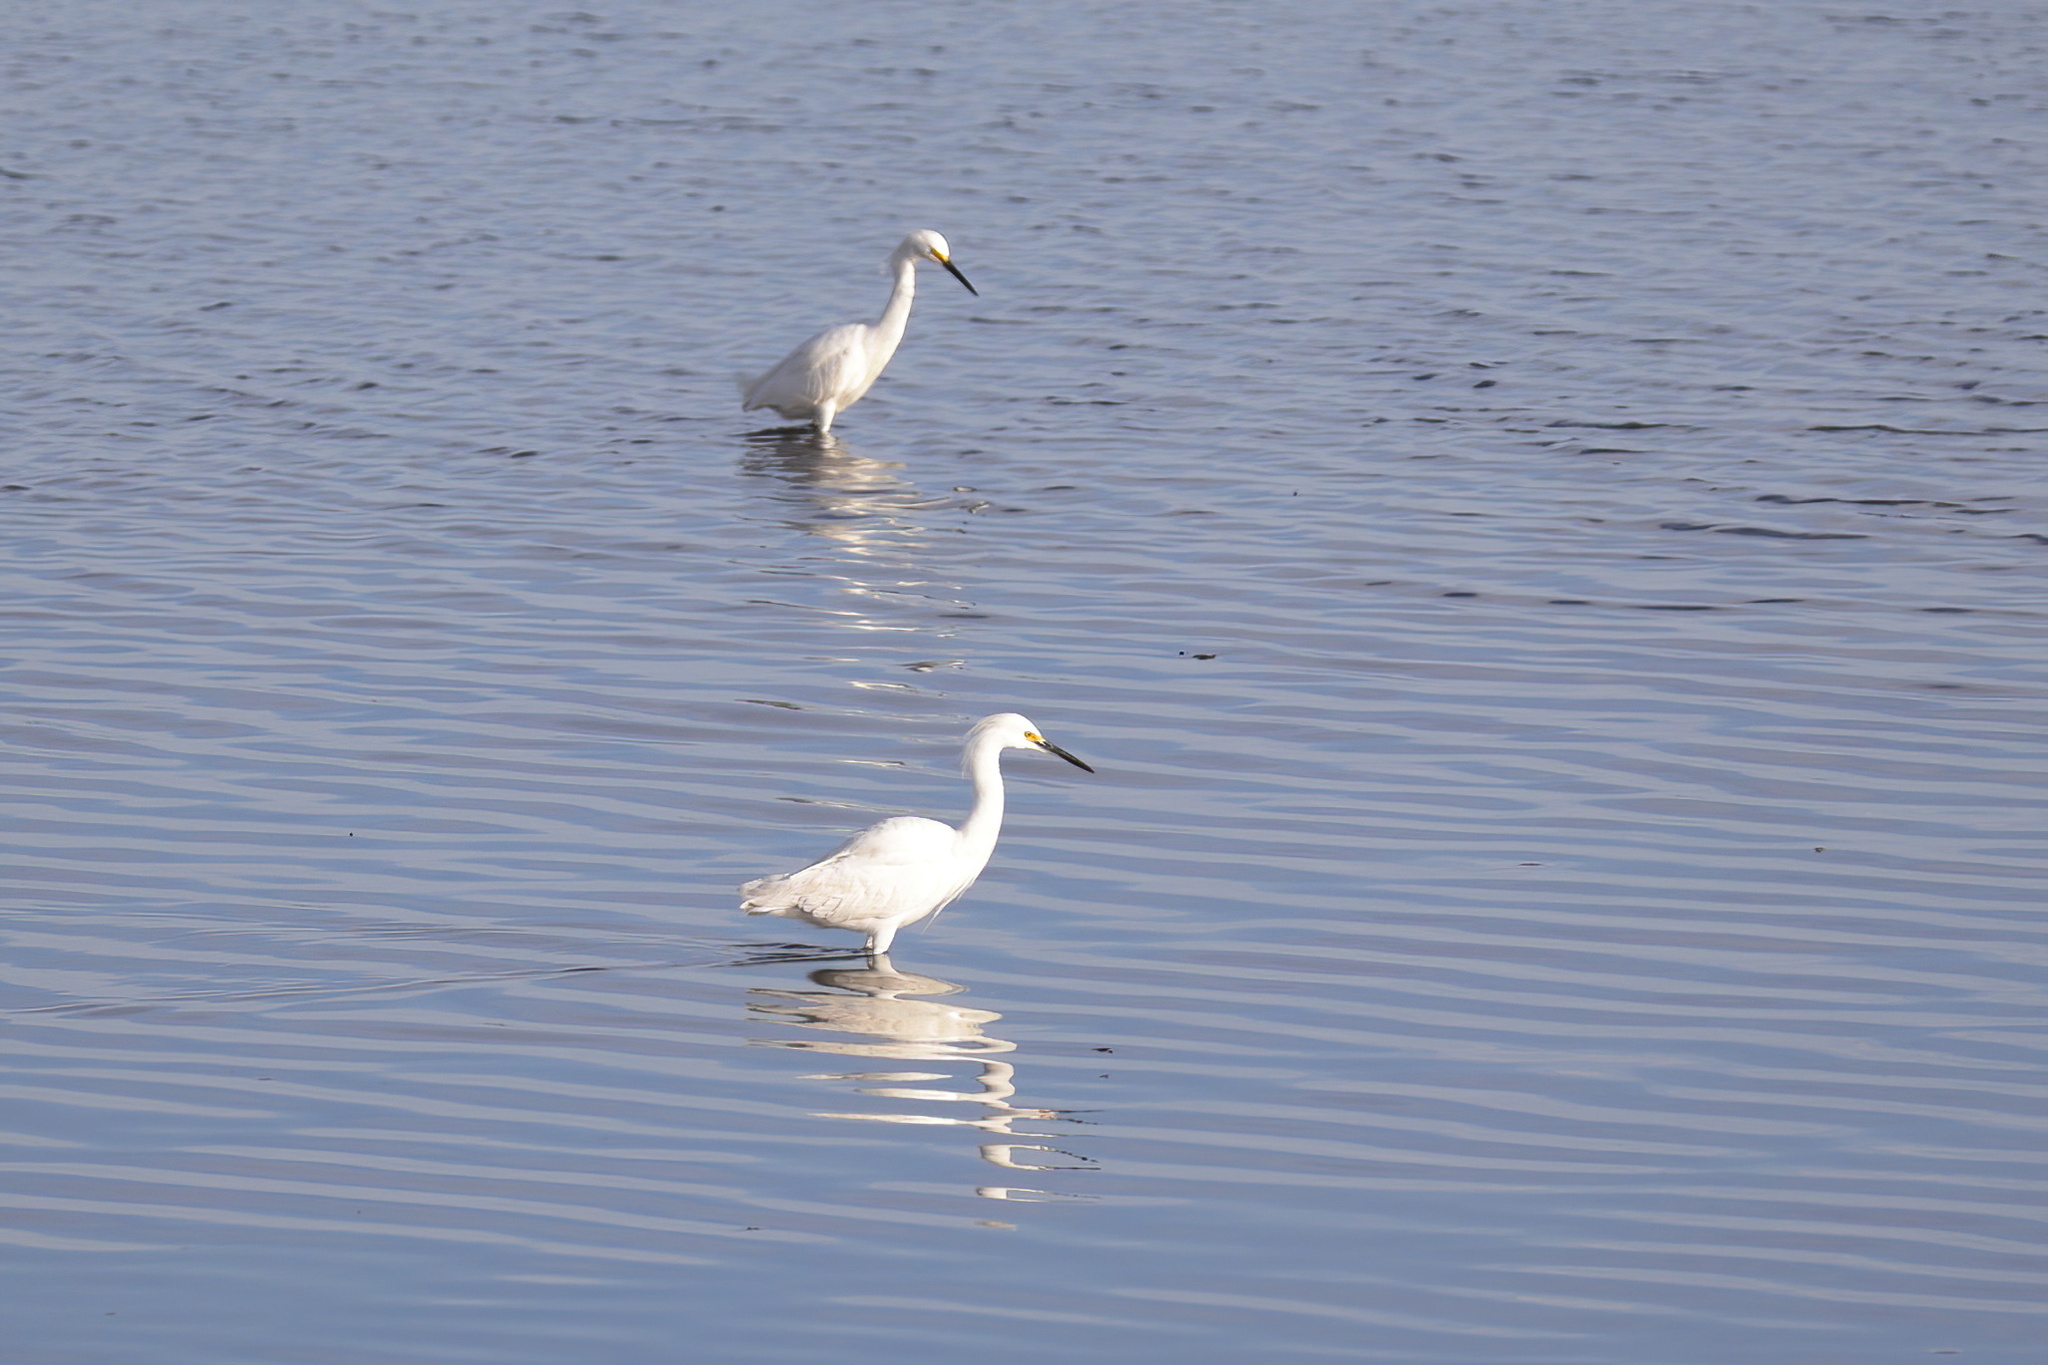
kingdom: Animalia
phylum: Chordata
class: Aves
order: Pelecaniformes
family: Ardeidae
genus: Egretta
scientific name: Egretta thula
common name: Snowy egret
